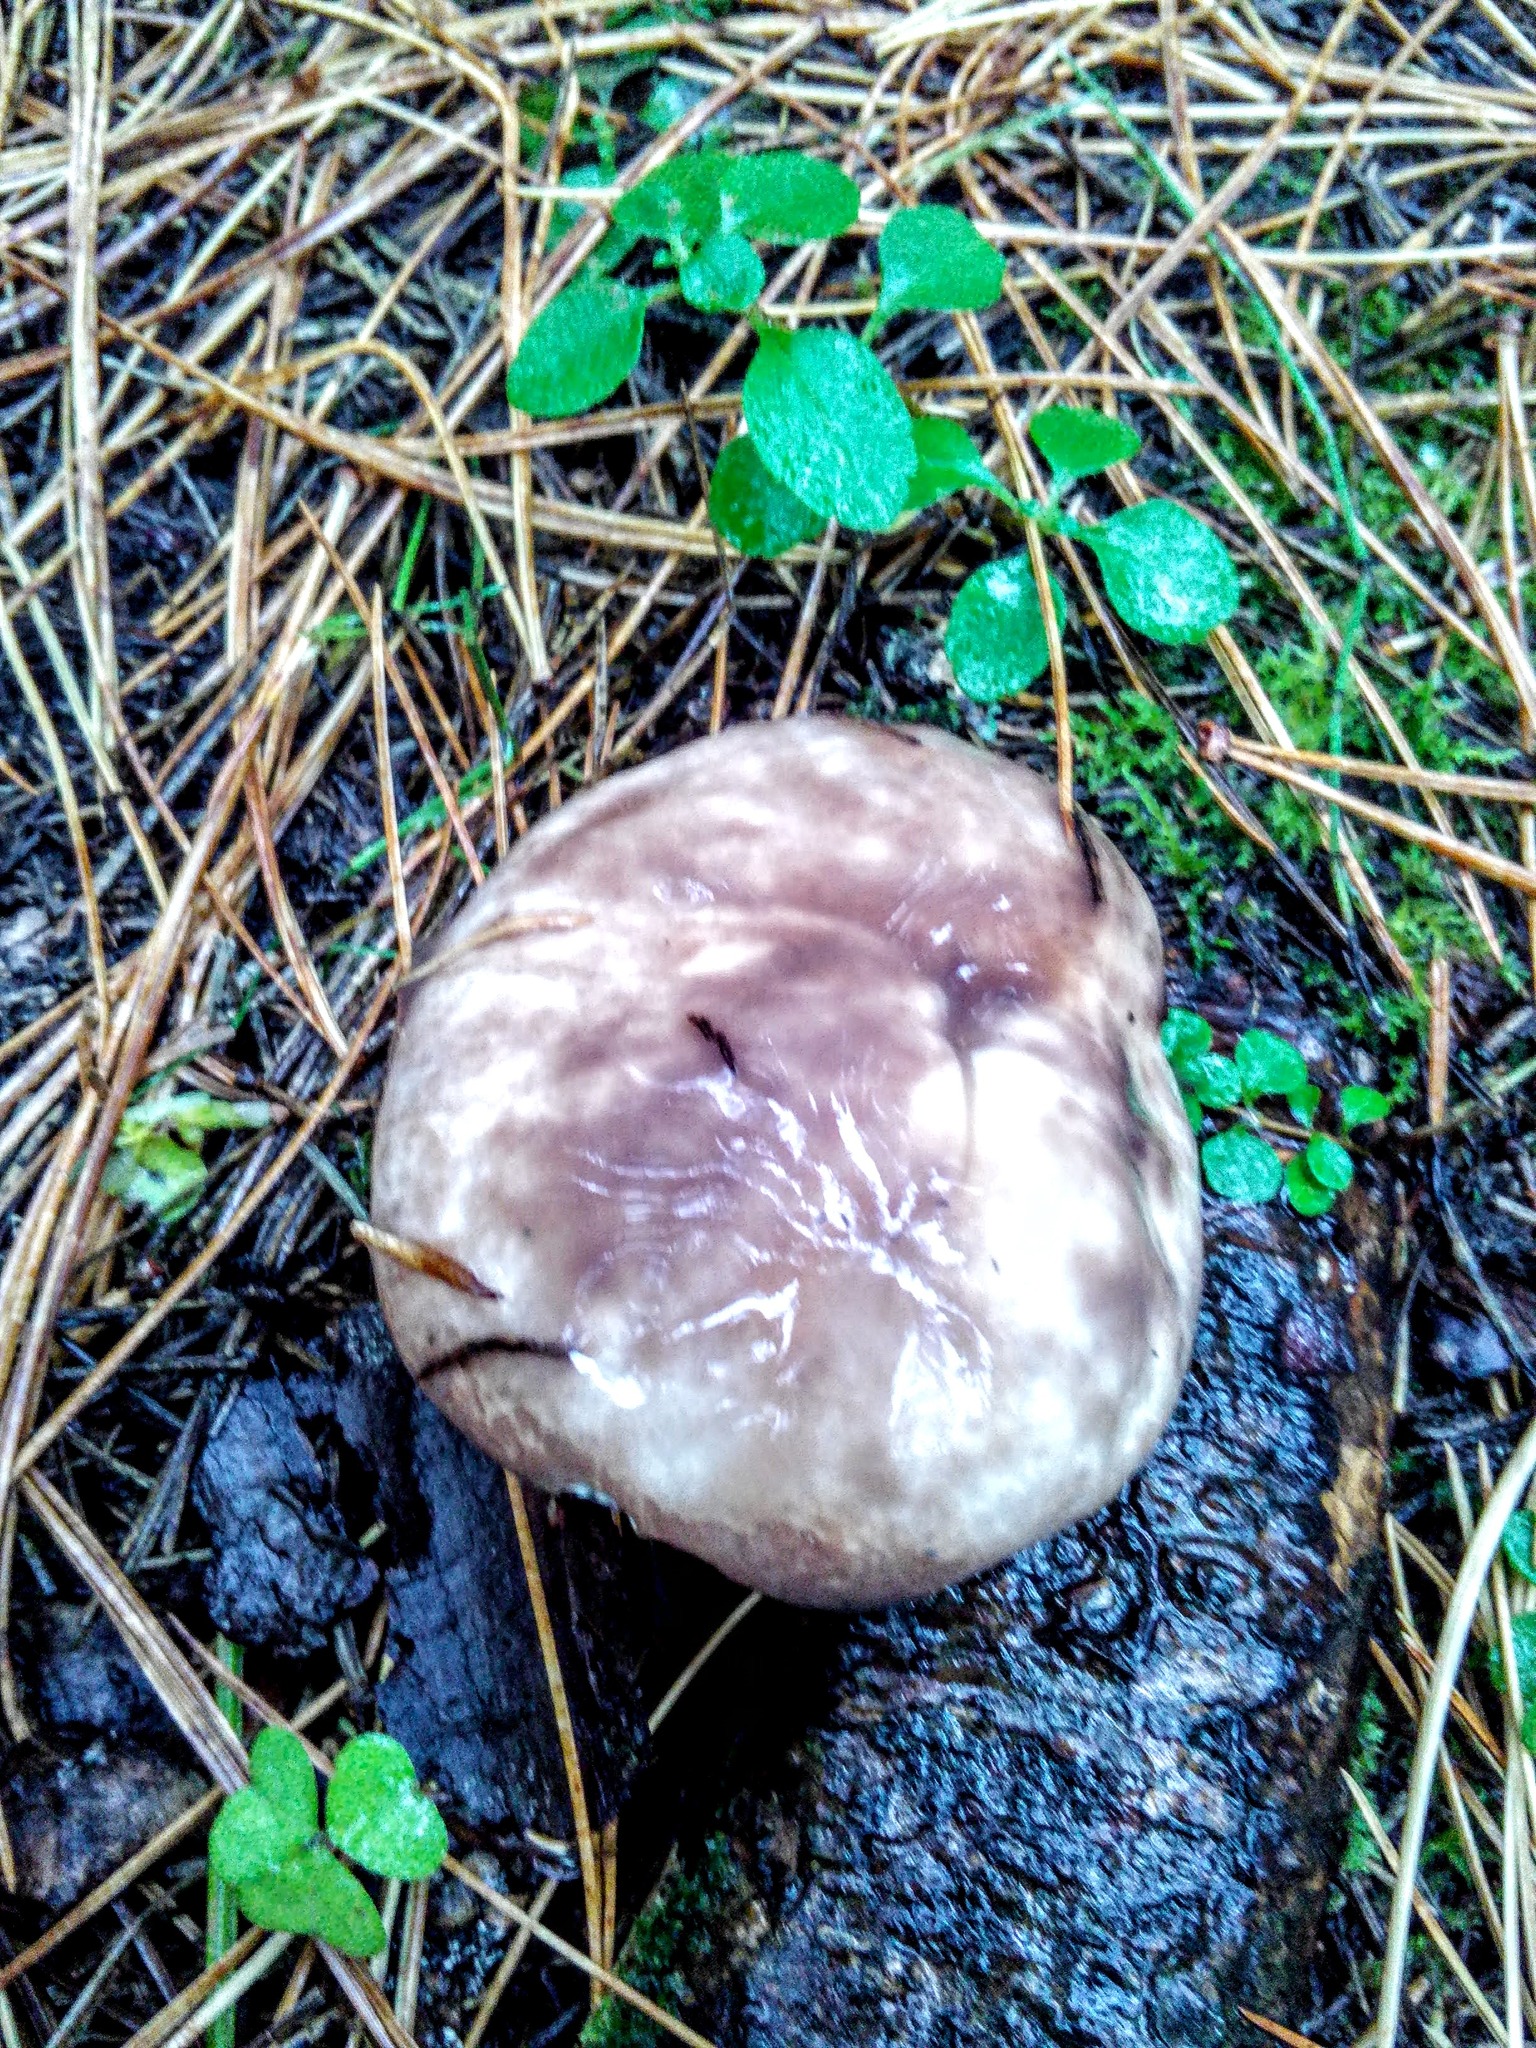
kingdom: Fungi
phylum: Basidiomycota
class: Agaricomycetes
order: Boletales
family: Suillaceae
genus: Suillus
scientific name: Suillus placidus
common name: Slippery white bolete
